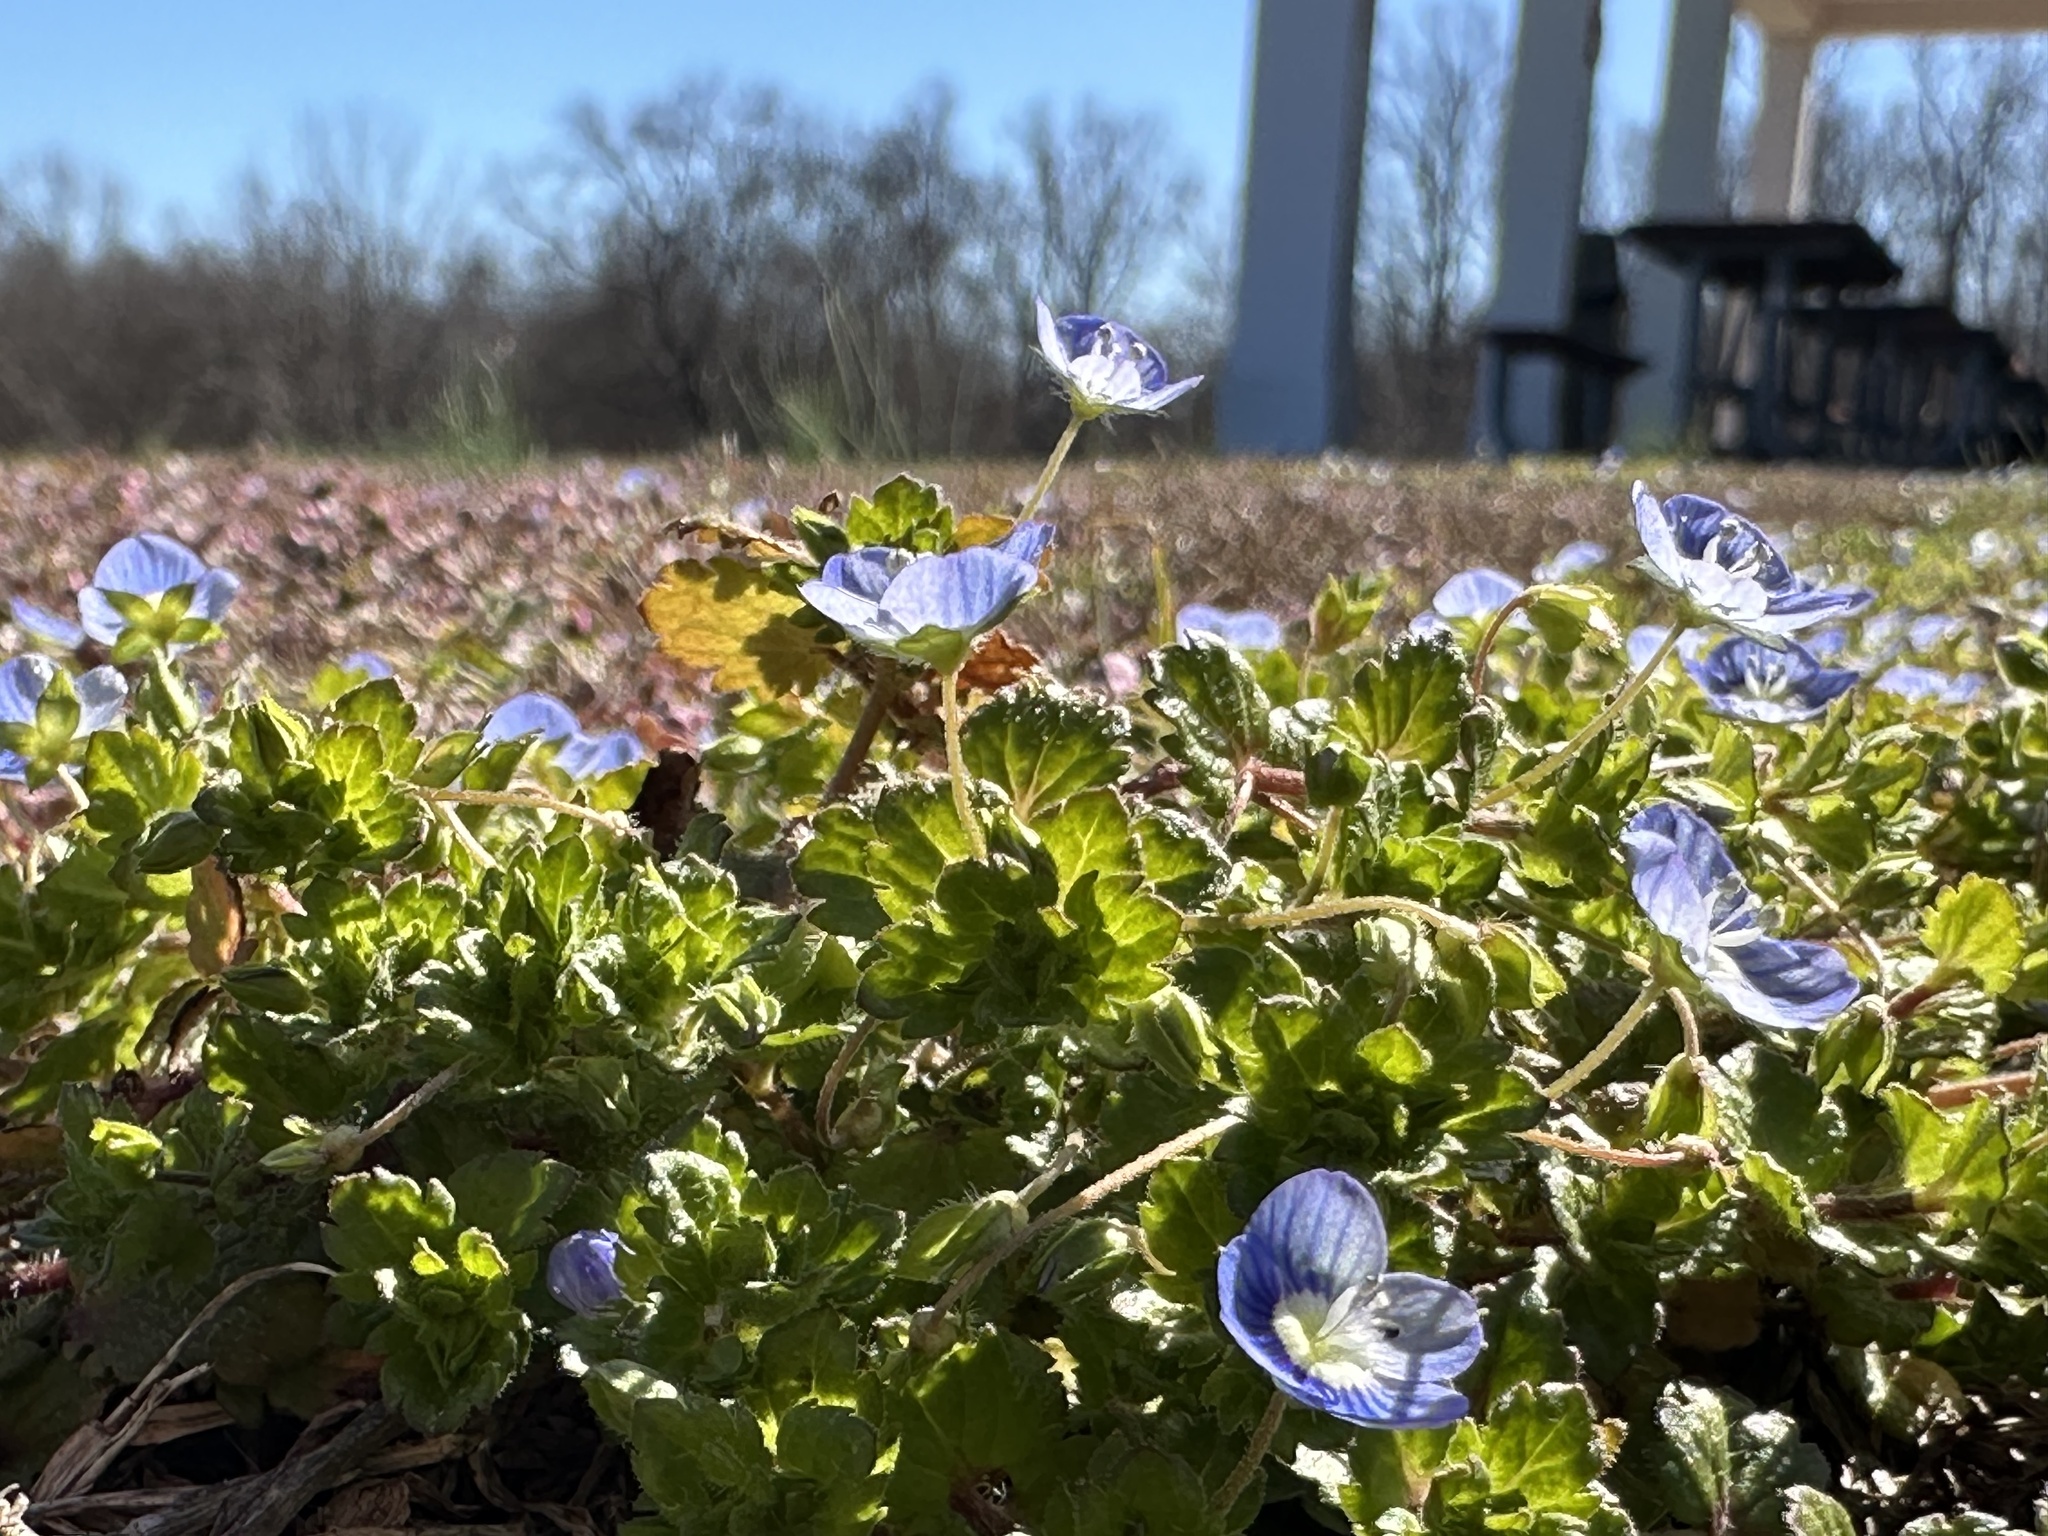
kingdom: Plantae
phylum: Tracheophyta
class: Magnoliopsida
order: Lamiales
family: Plantaginaceae
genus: Veronica
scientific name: Veronica persica
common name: Common field-speedwell
